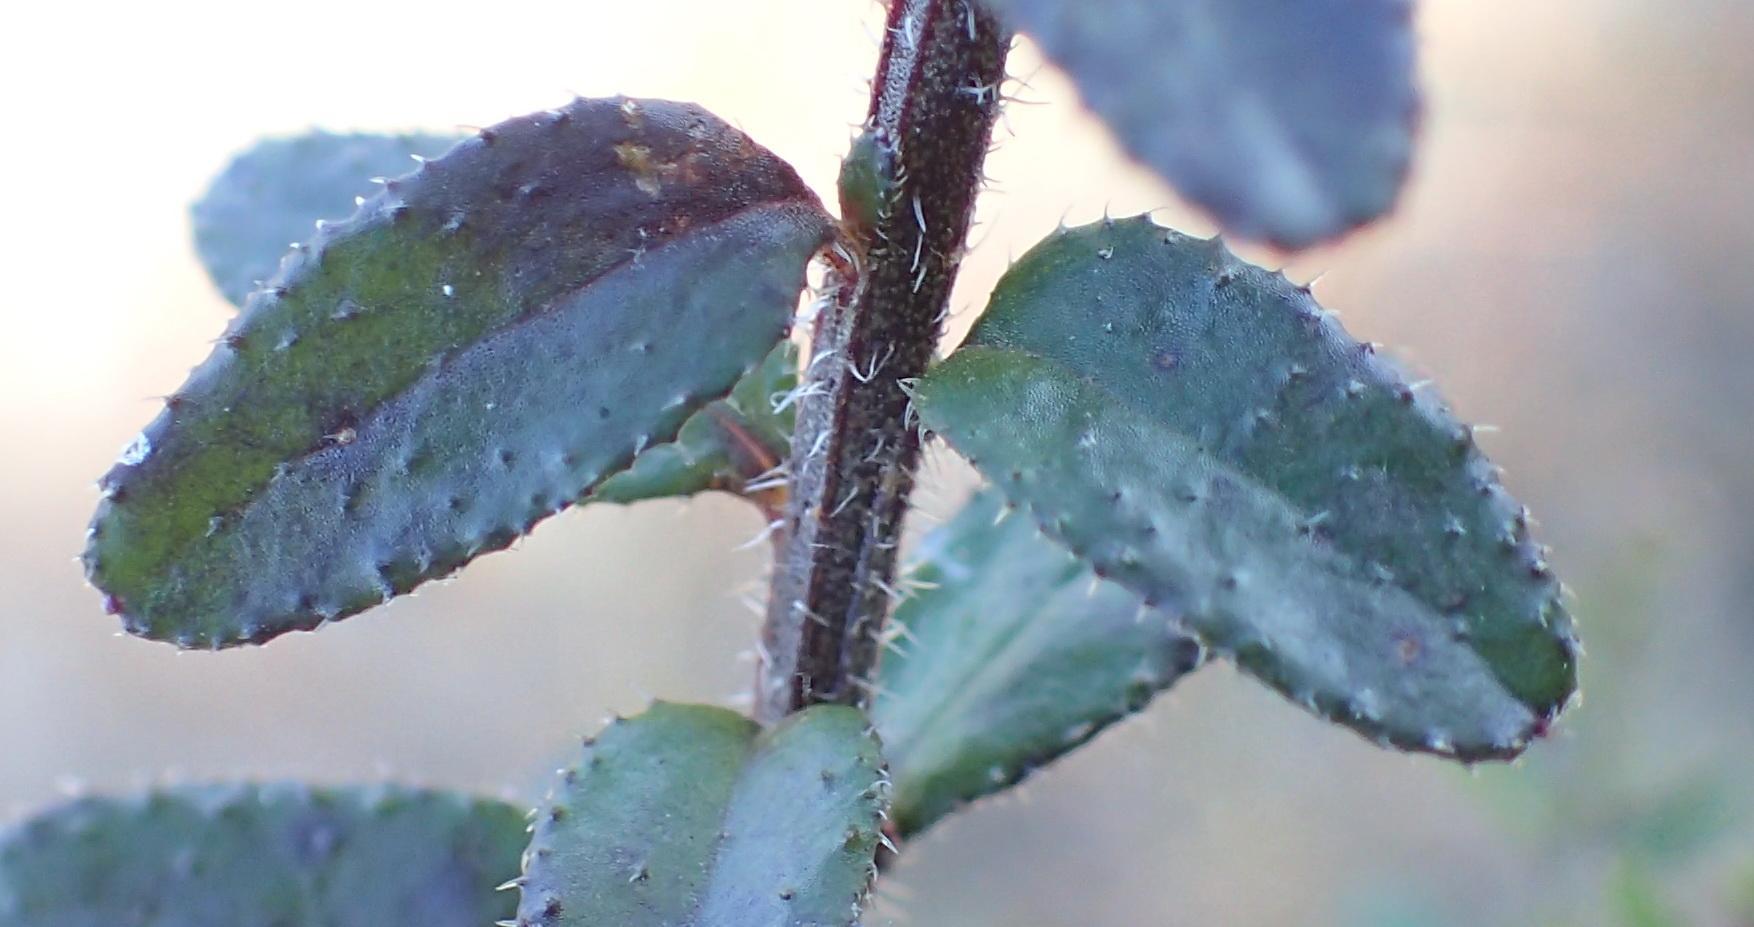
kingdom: Plantae
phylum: Tracheophyta
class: Magnoliopsida
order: Asterales
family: Campanulaceae
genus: Lobelia
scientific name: Lobelia neglecta
